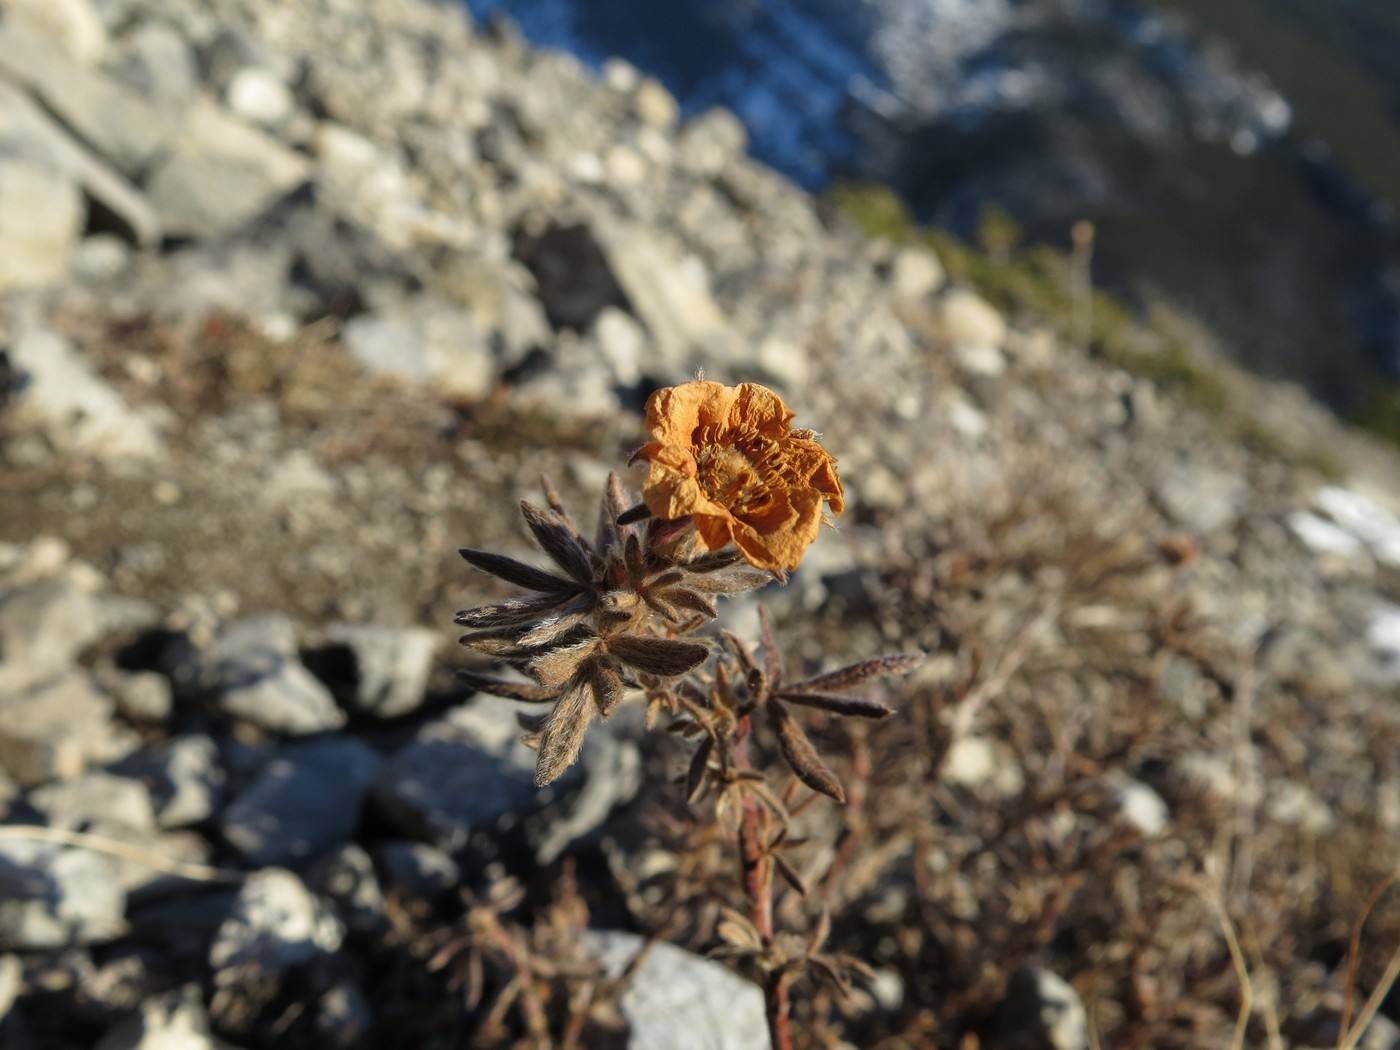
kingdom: Plantae
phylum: Tracheophyta
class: Magnoliopsida
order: Rosales
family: Rosaceae
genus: Dasiphora
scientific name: Dasiphora fruticosa
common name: Shrubby cinquefoil
